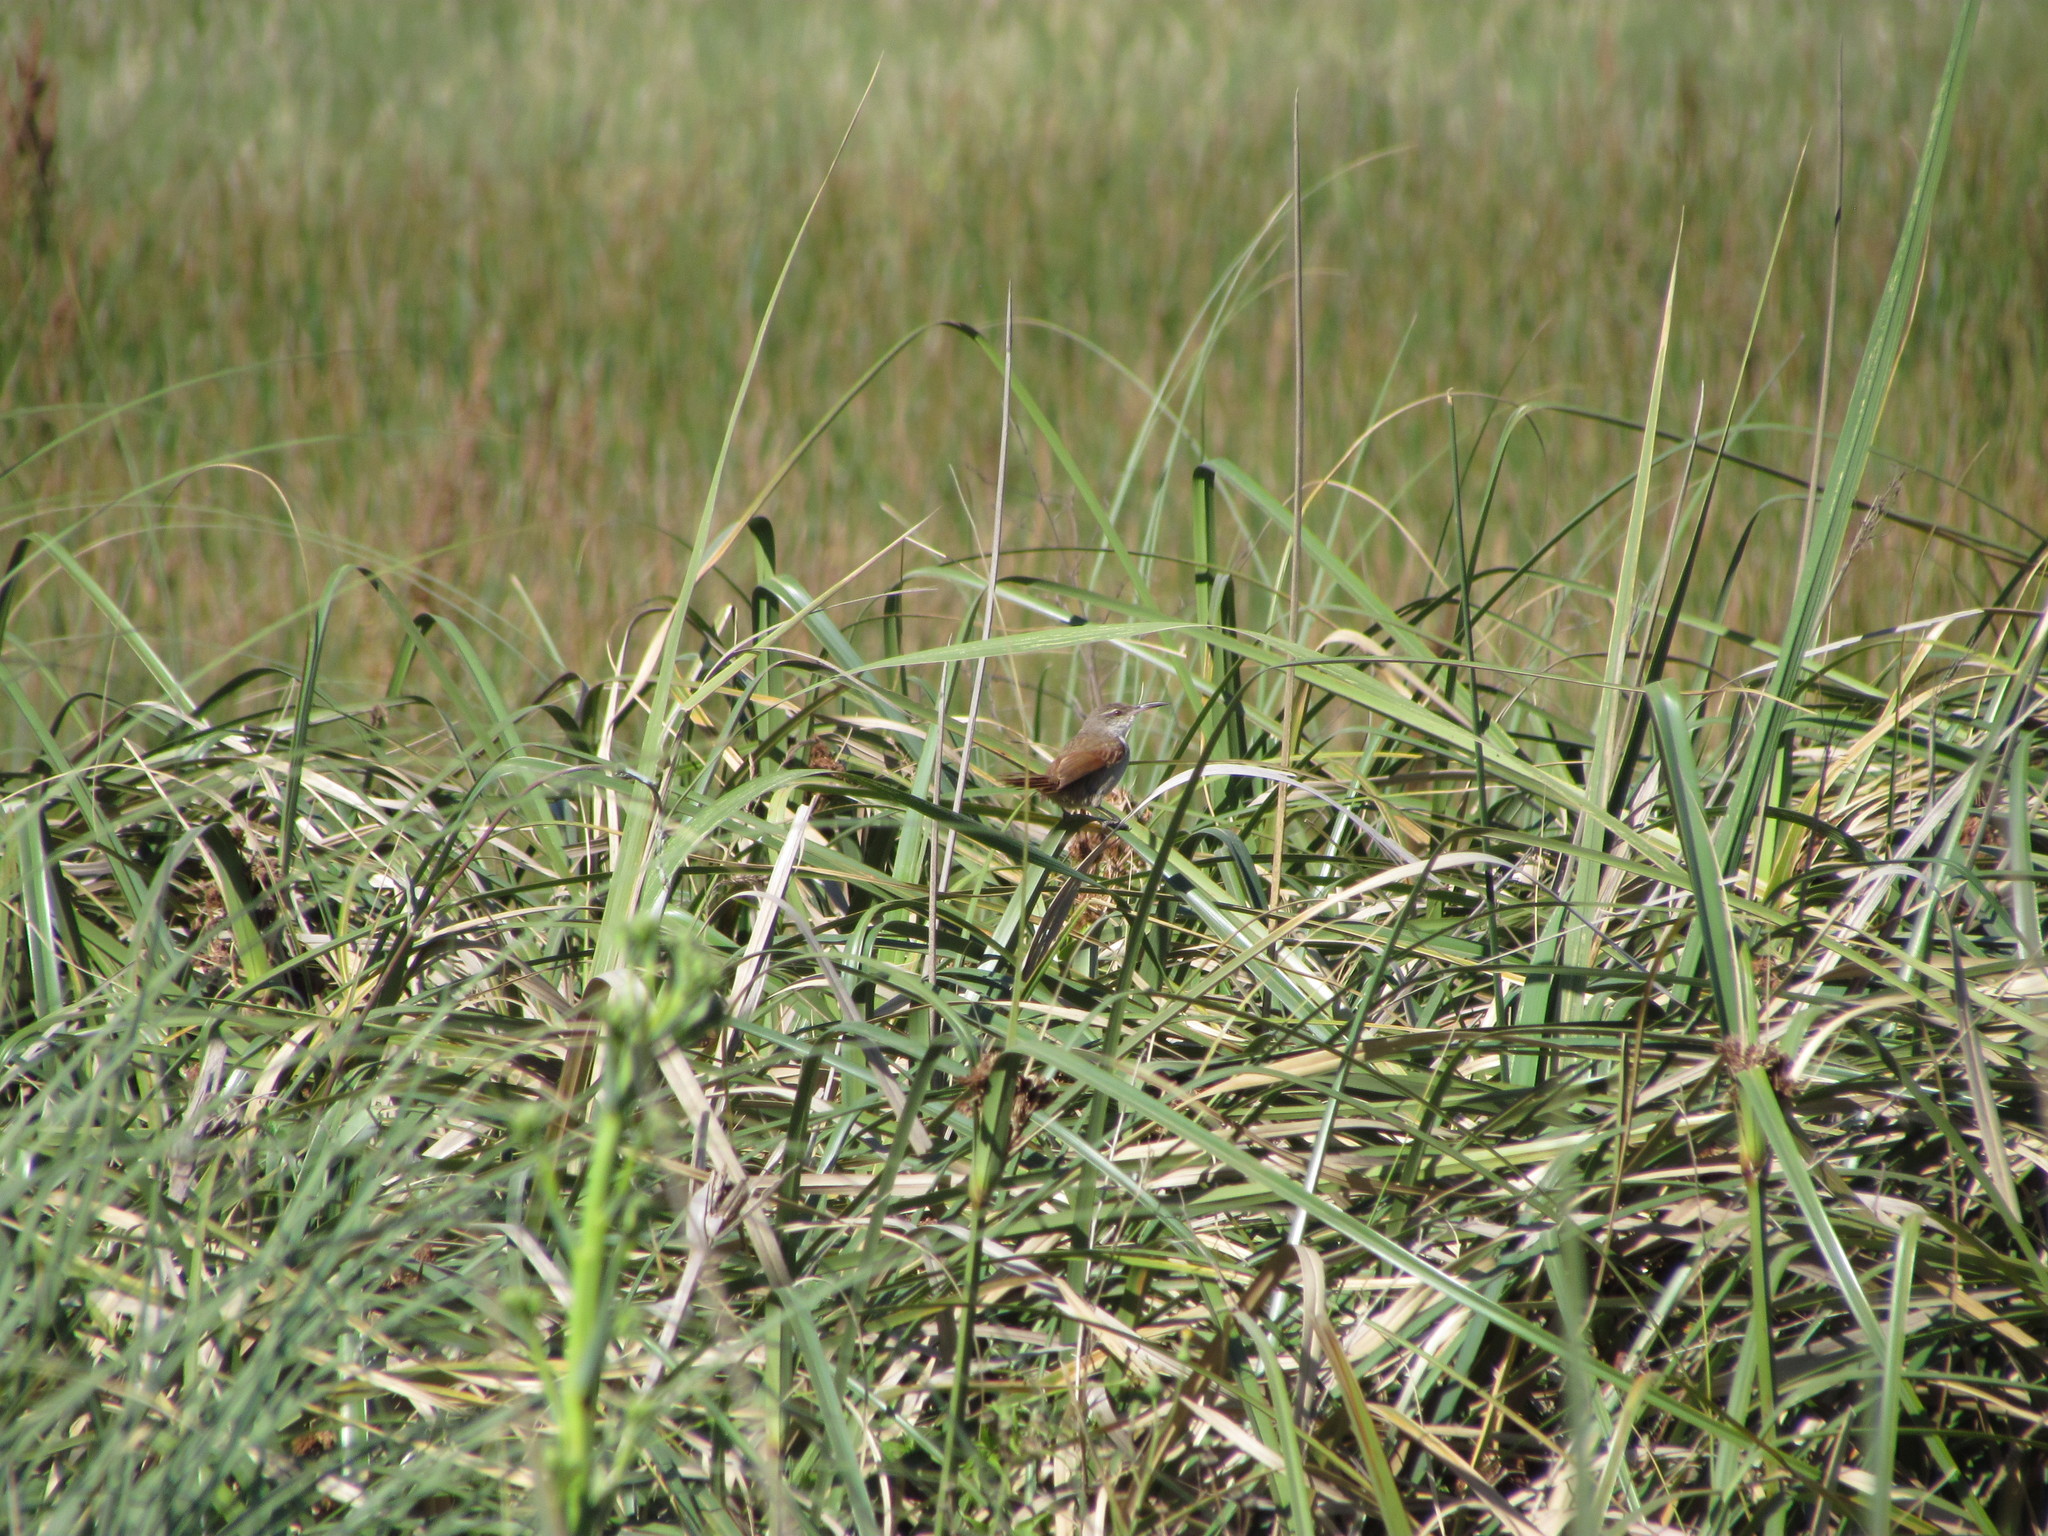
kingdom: Animalia
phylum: Chordata
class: Aves
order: Passeriformes
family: Furnariidae
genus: Limnornis
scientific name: Limnornis rectirostris
